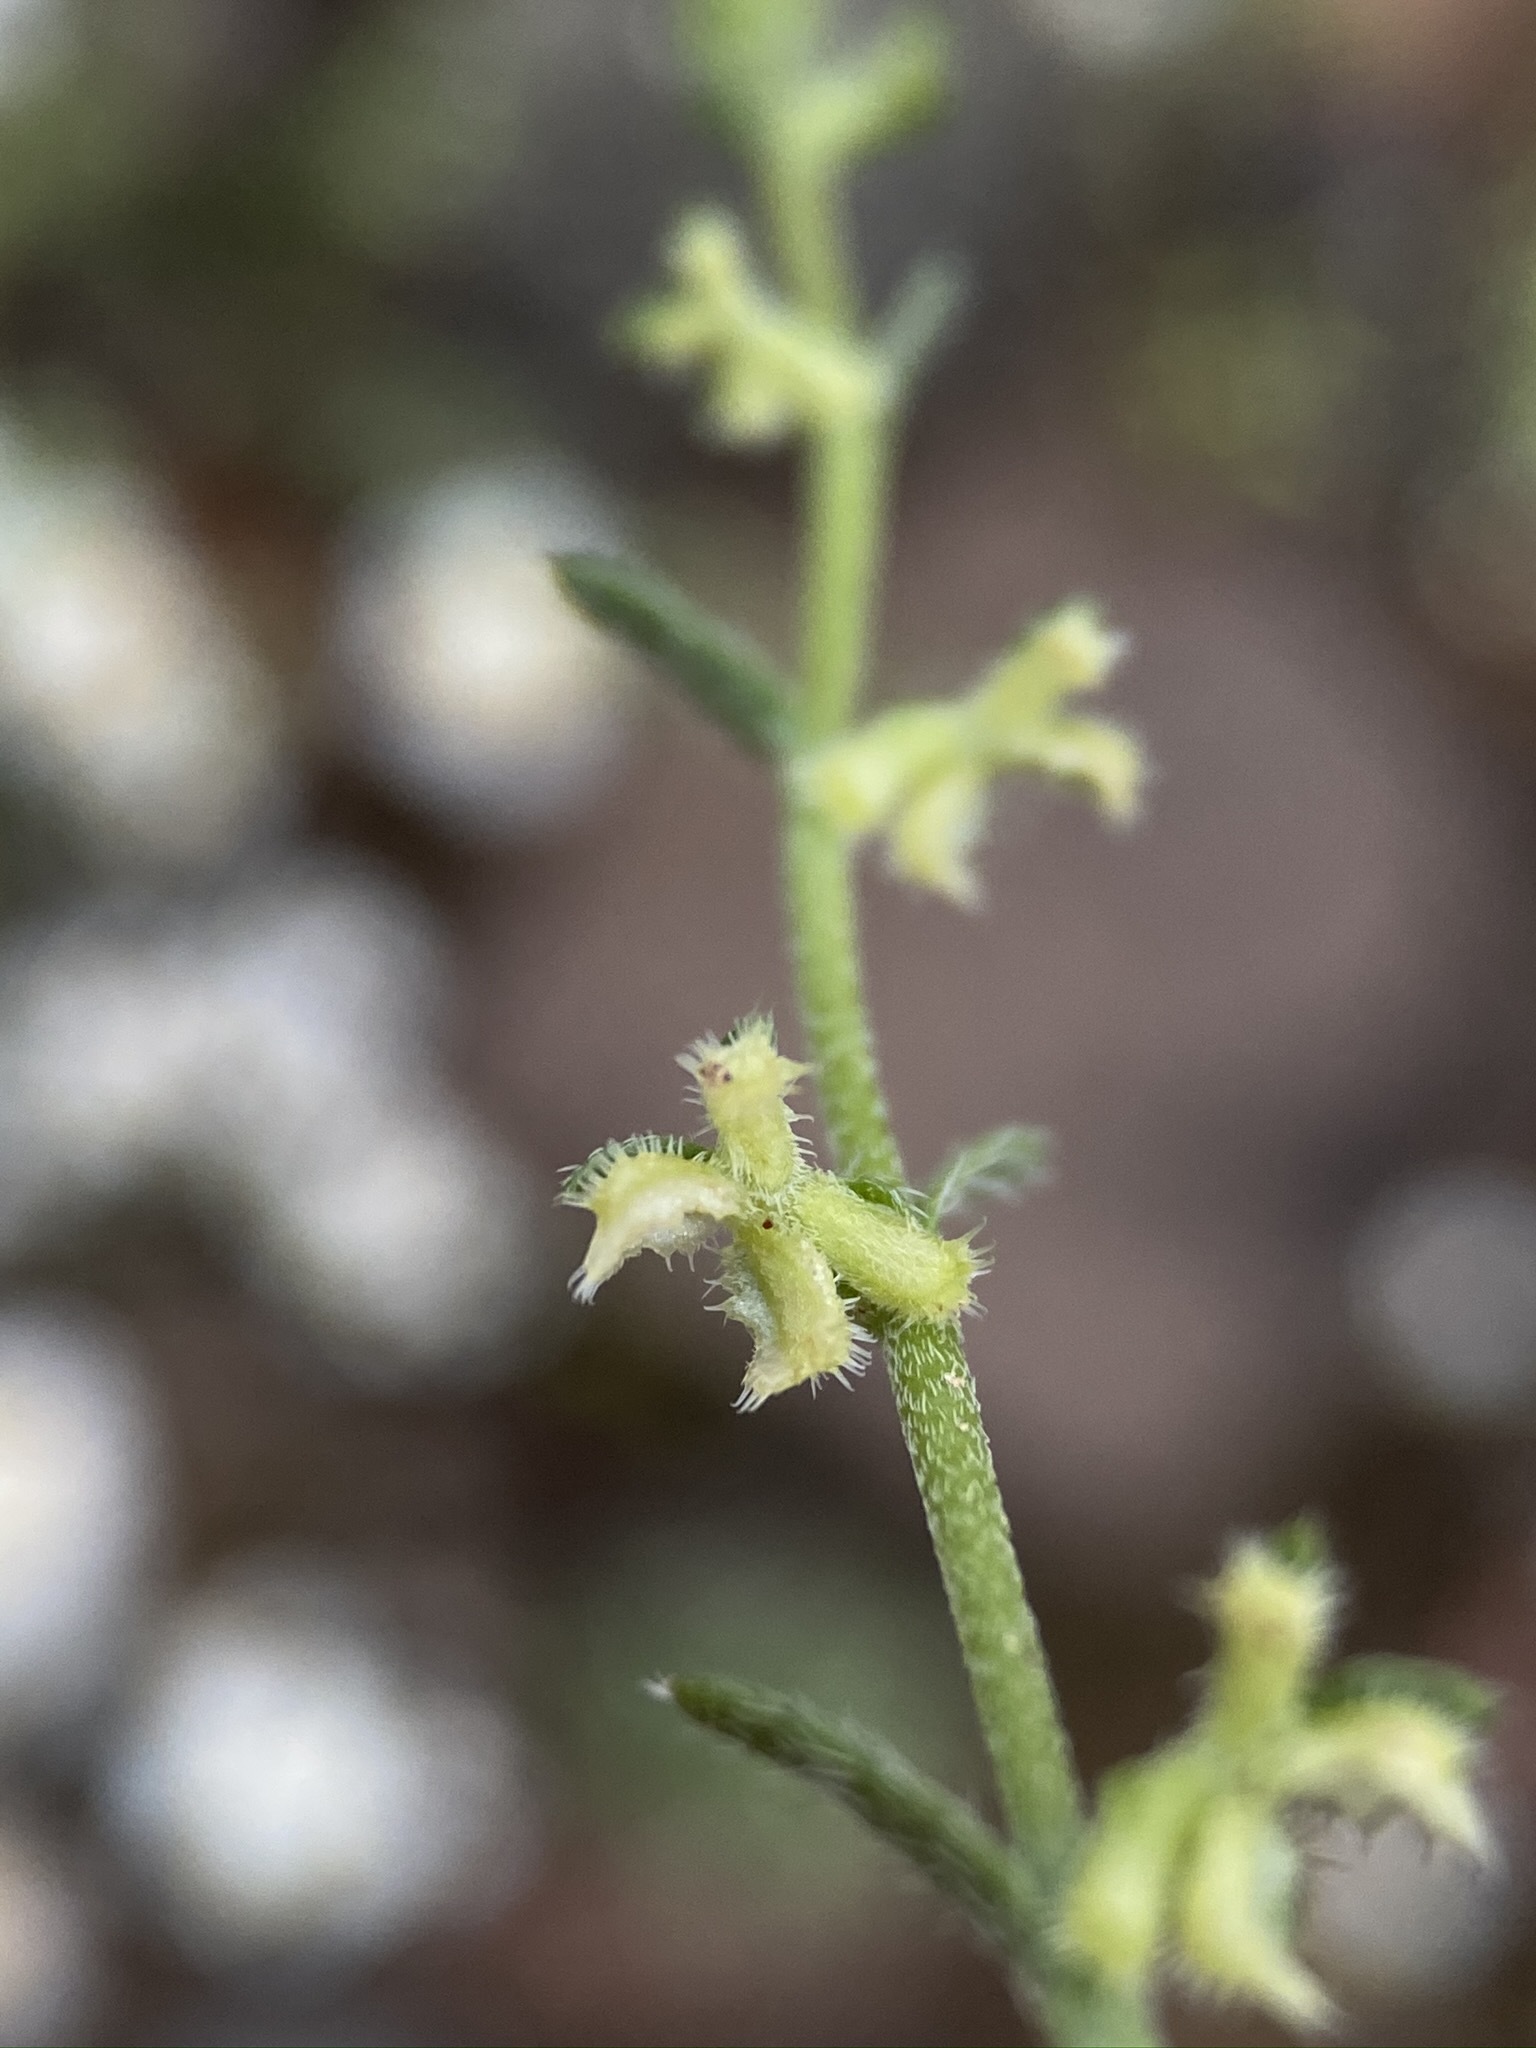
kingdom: Plantae
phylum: Tracheophyta
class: Magnoliopsida
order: Boraginales
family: Boraginaceae
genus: Pectocarya
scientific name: Pectocarya heterocarpa
